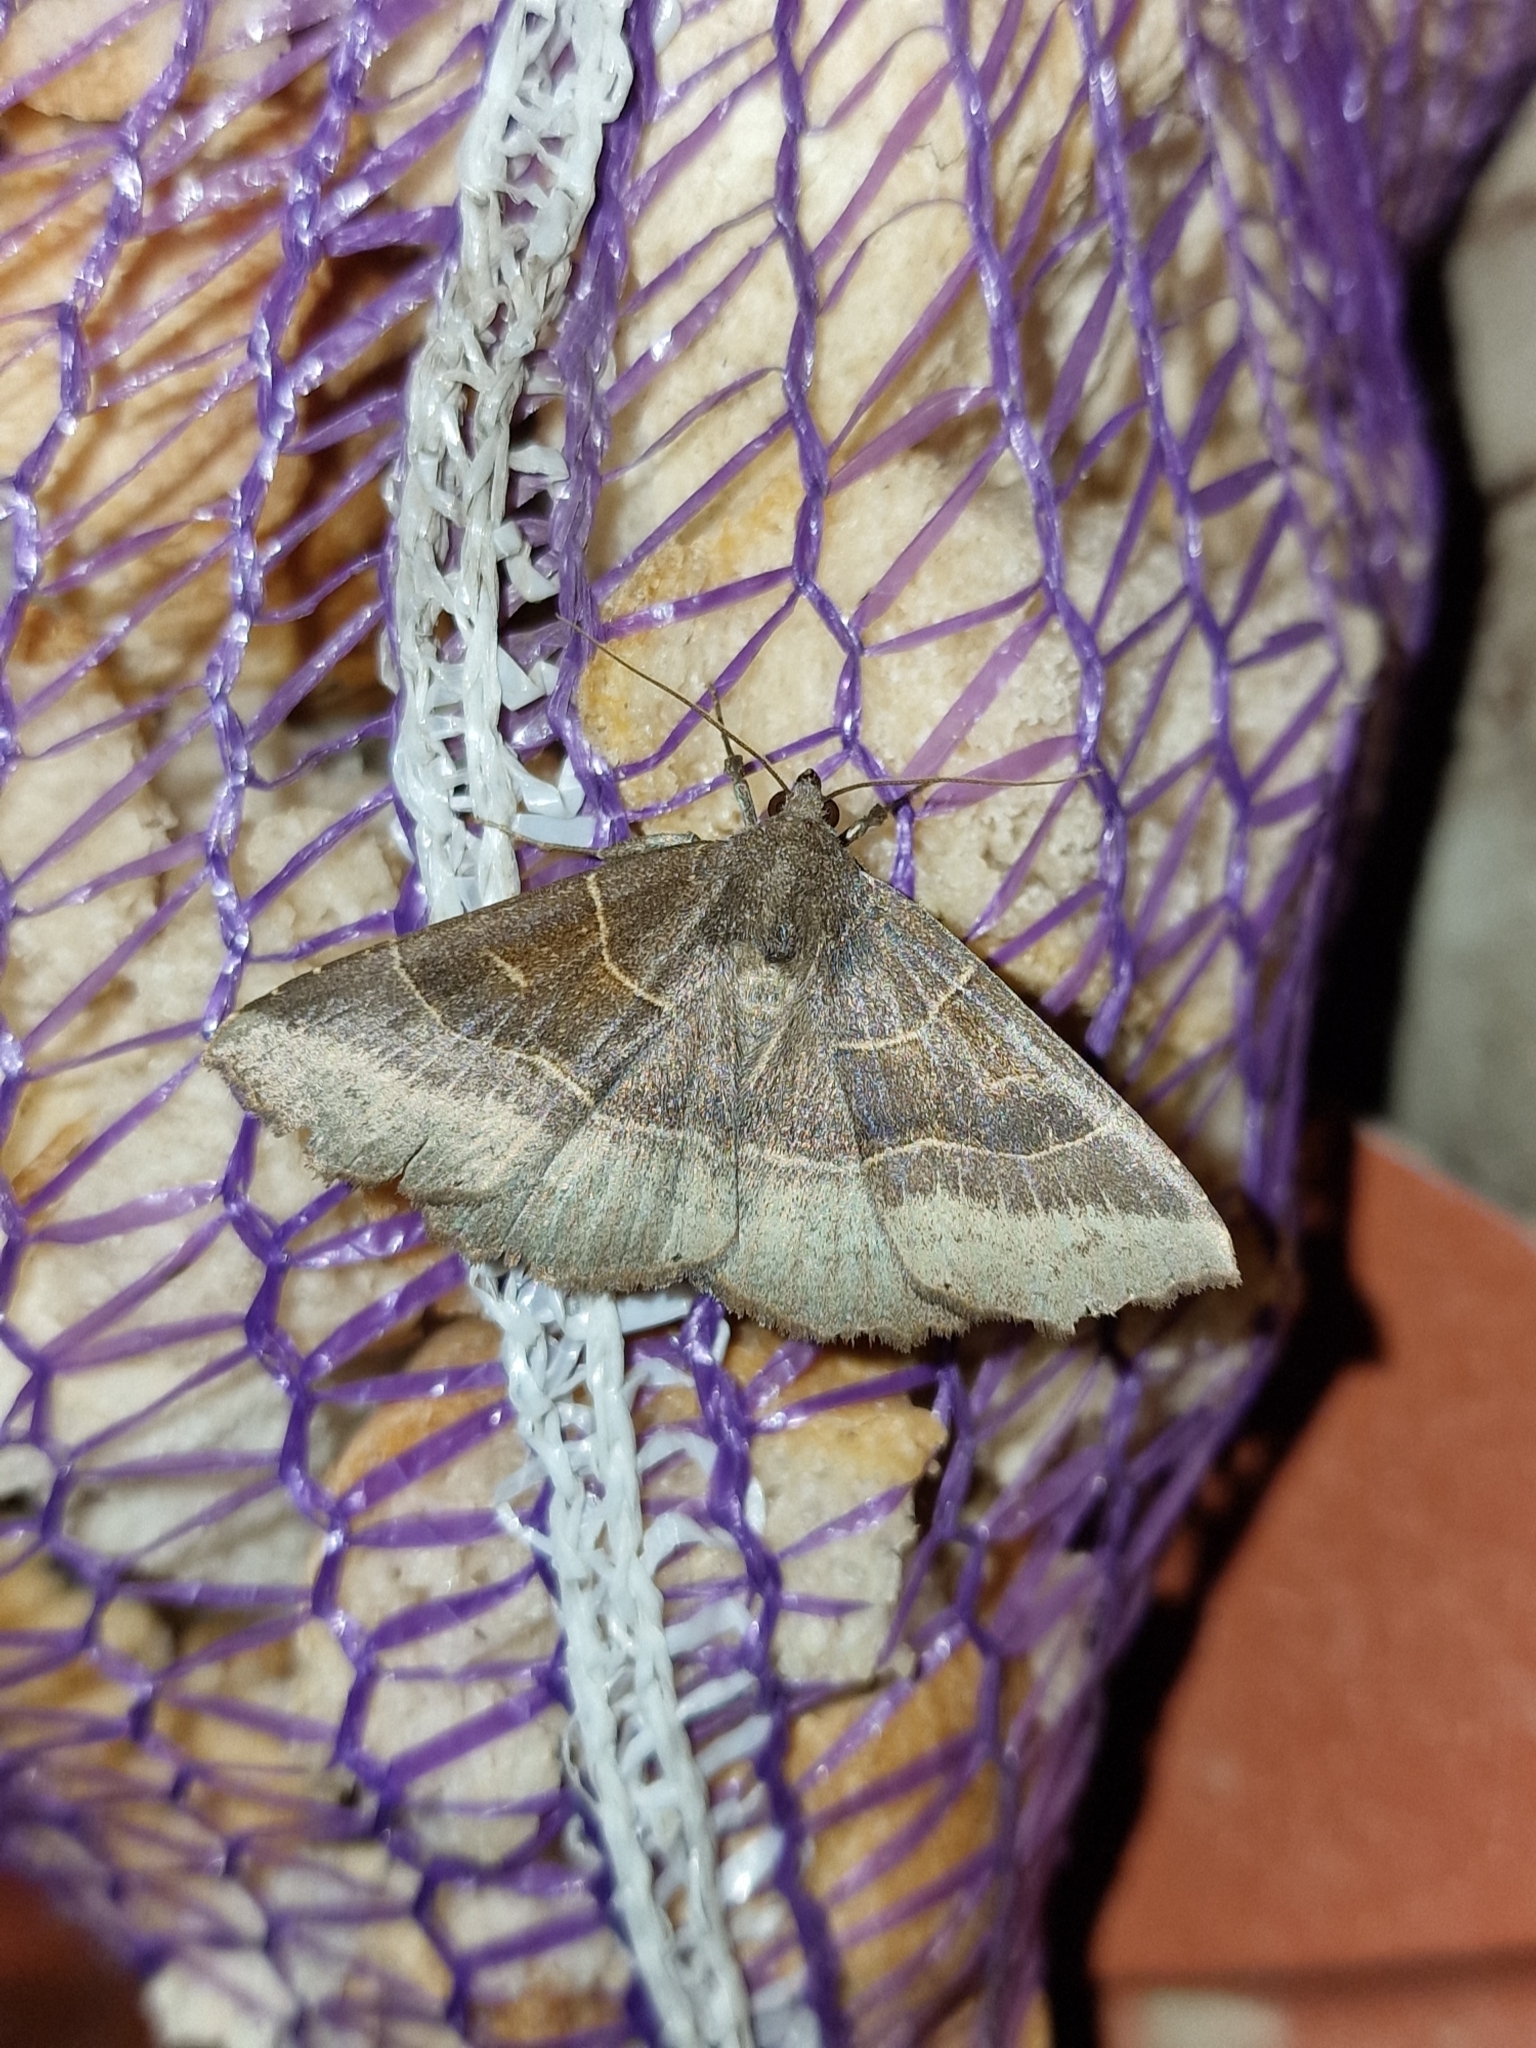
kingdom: Animalia
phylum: Arthropoda
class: Insecta
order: Lepidoptera
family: Erebidae
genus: Arytrura
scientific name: Arytrura musculus
